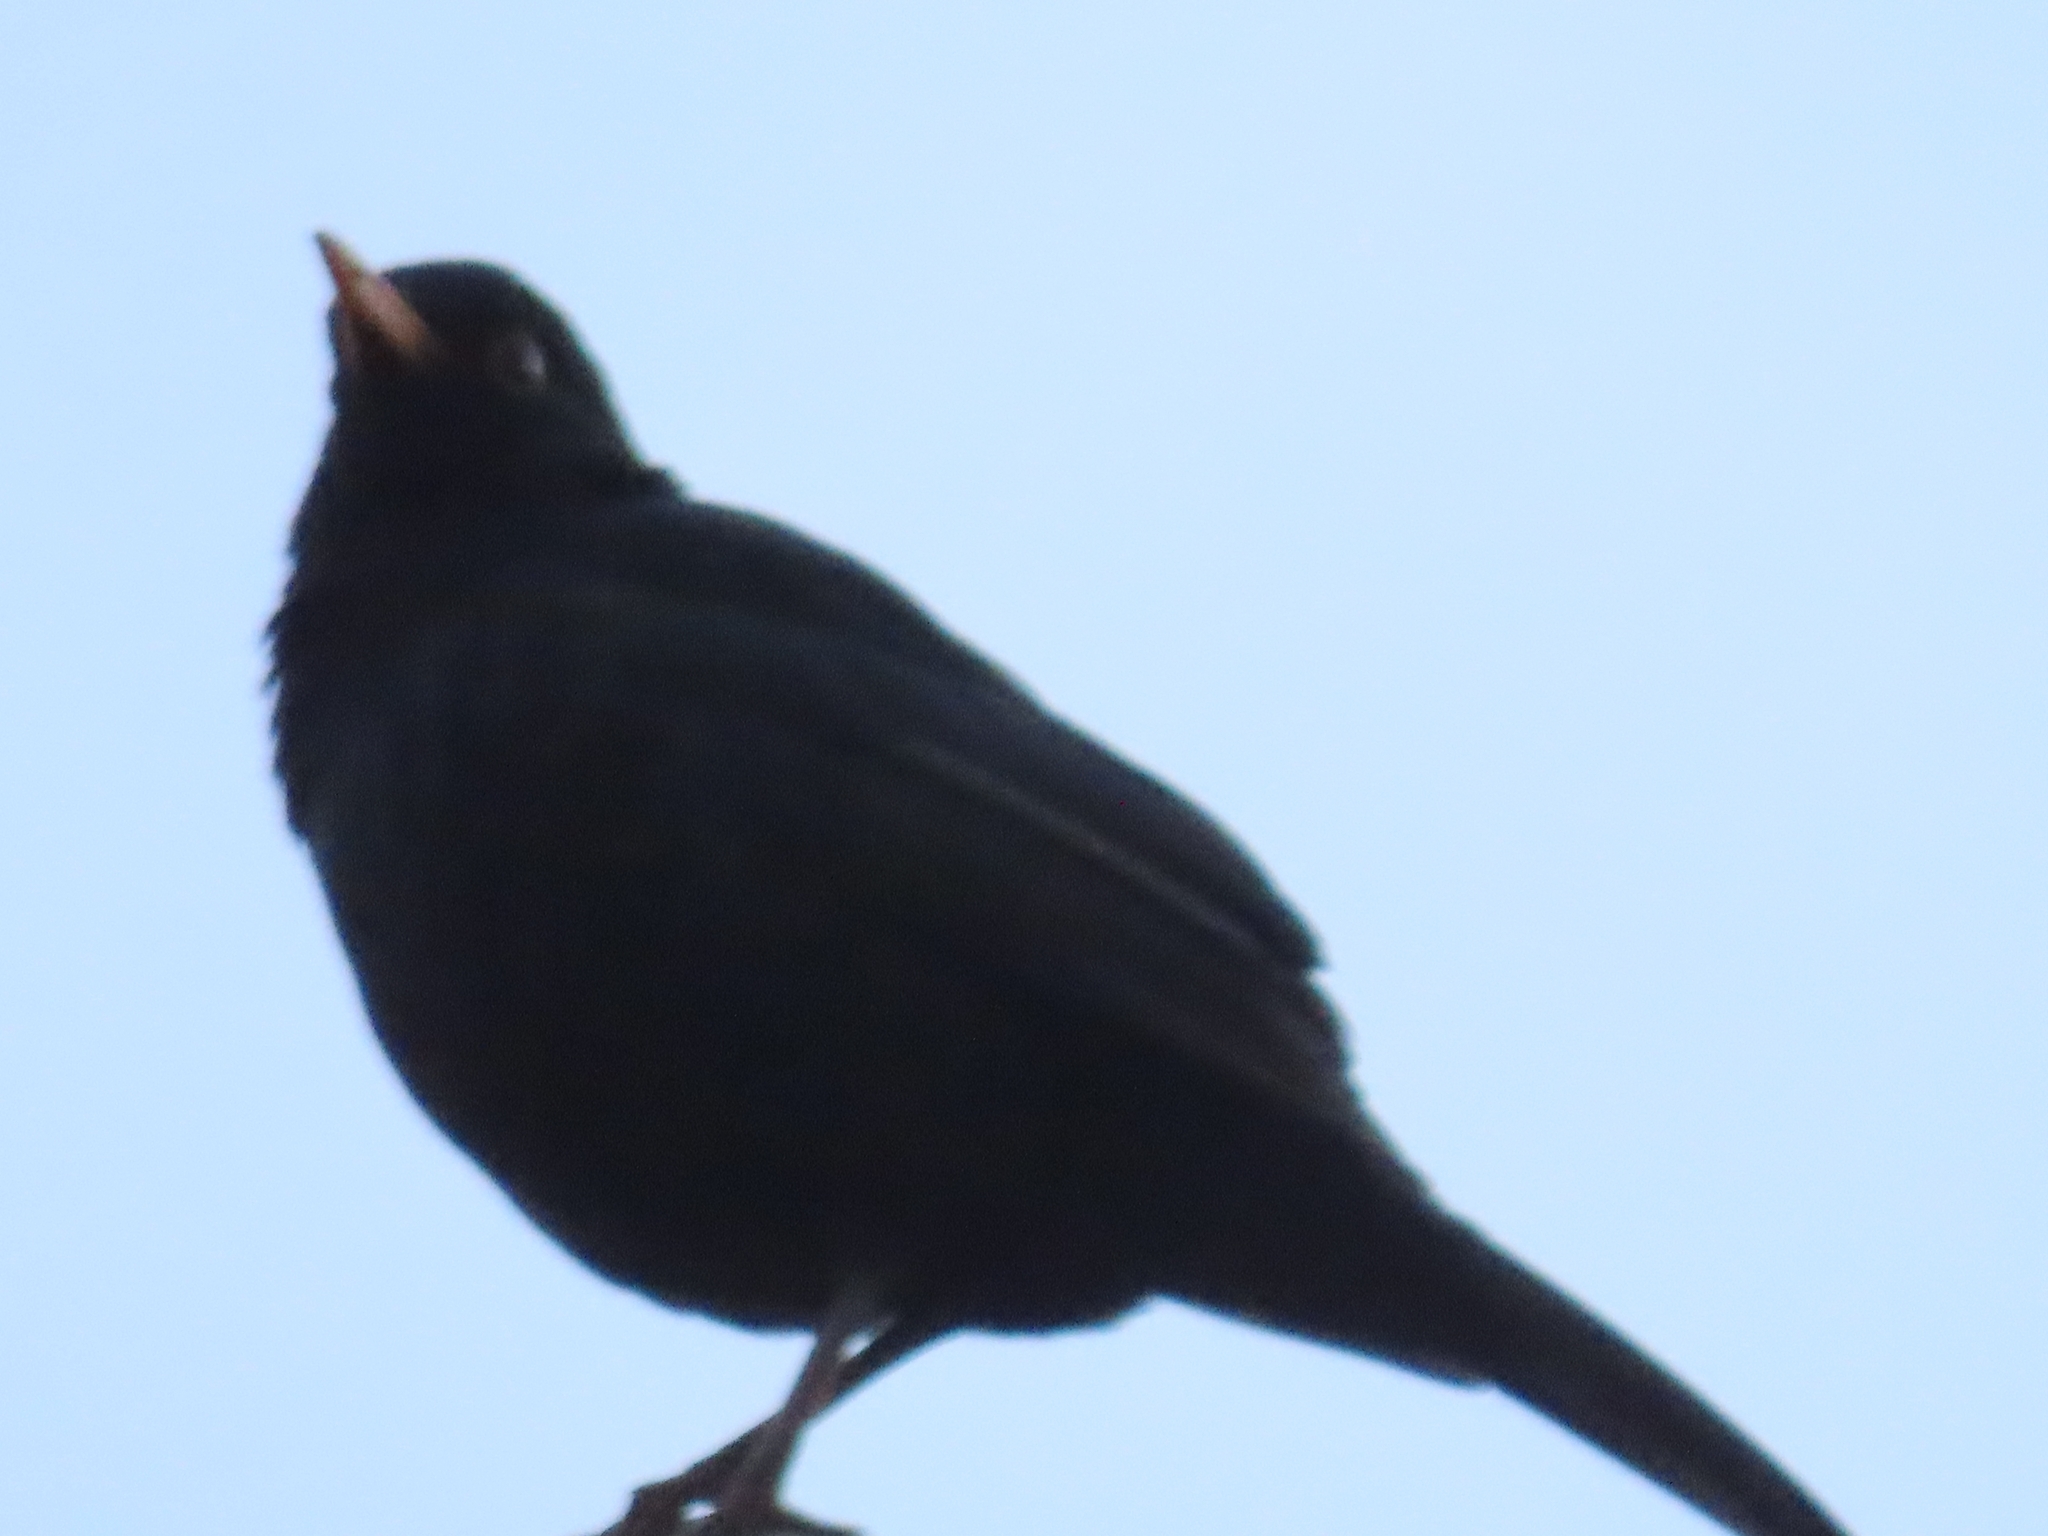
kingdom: Animalia
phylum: Chordata
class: Aves
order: Passeriformes
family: Turdidae
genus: Turdus
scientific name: Turdus merula
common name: Common blackbird
